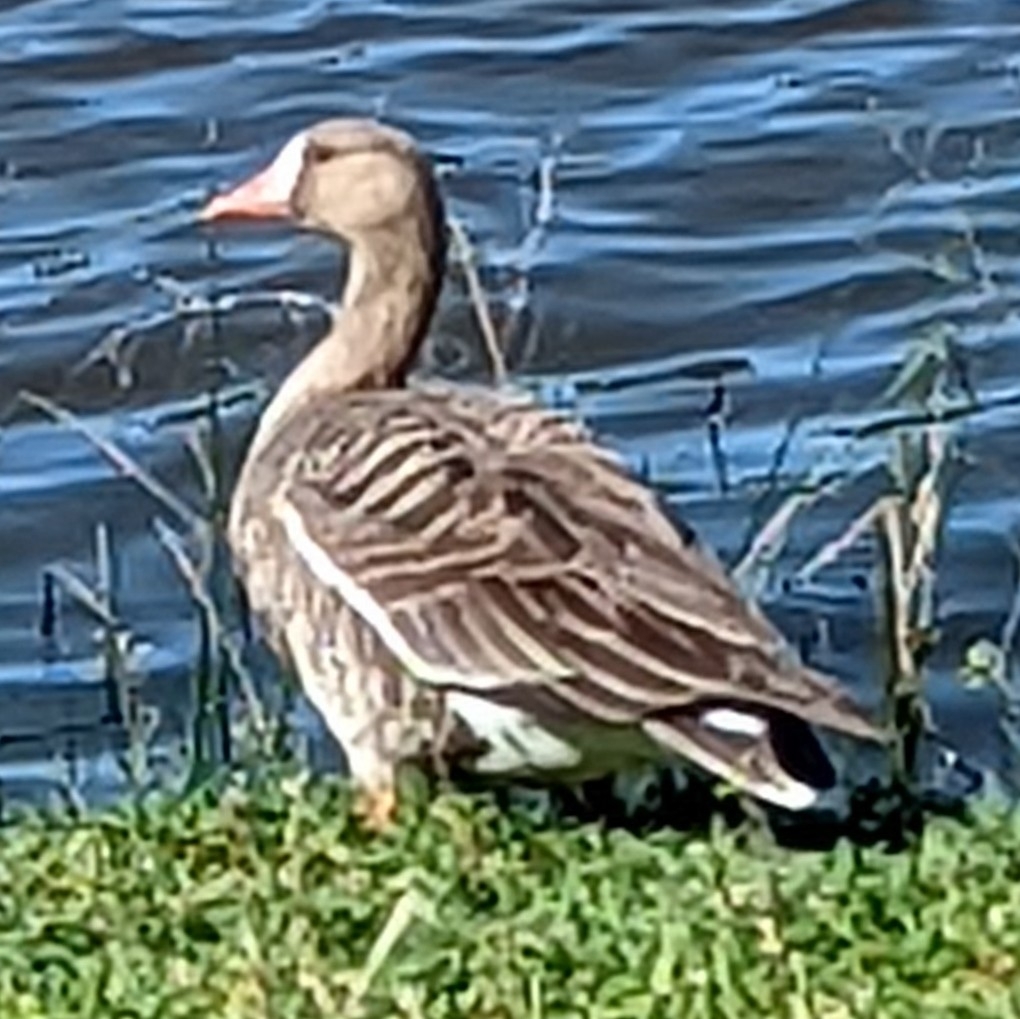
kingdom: Animalia
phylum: Chordata
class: Aves
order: Anseriformes
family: Anatidae
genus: Anser
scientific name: Anser albifrons
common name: Greater white-fronted goose
